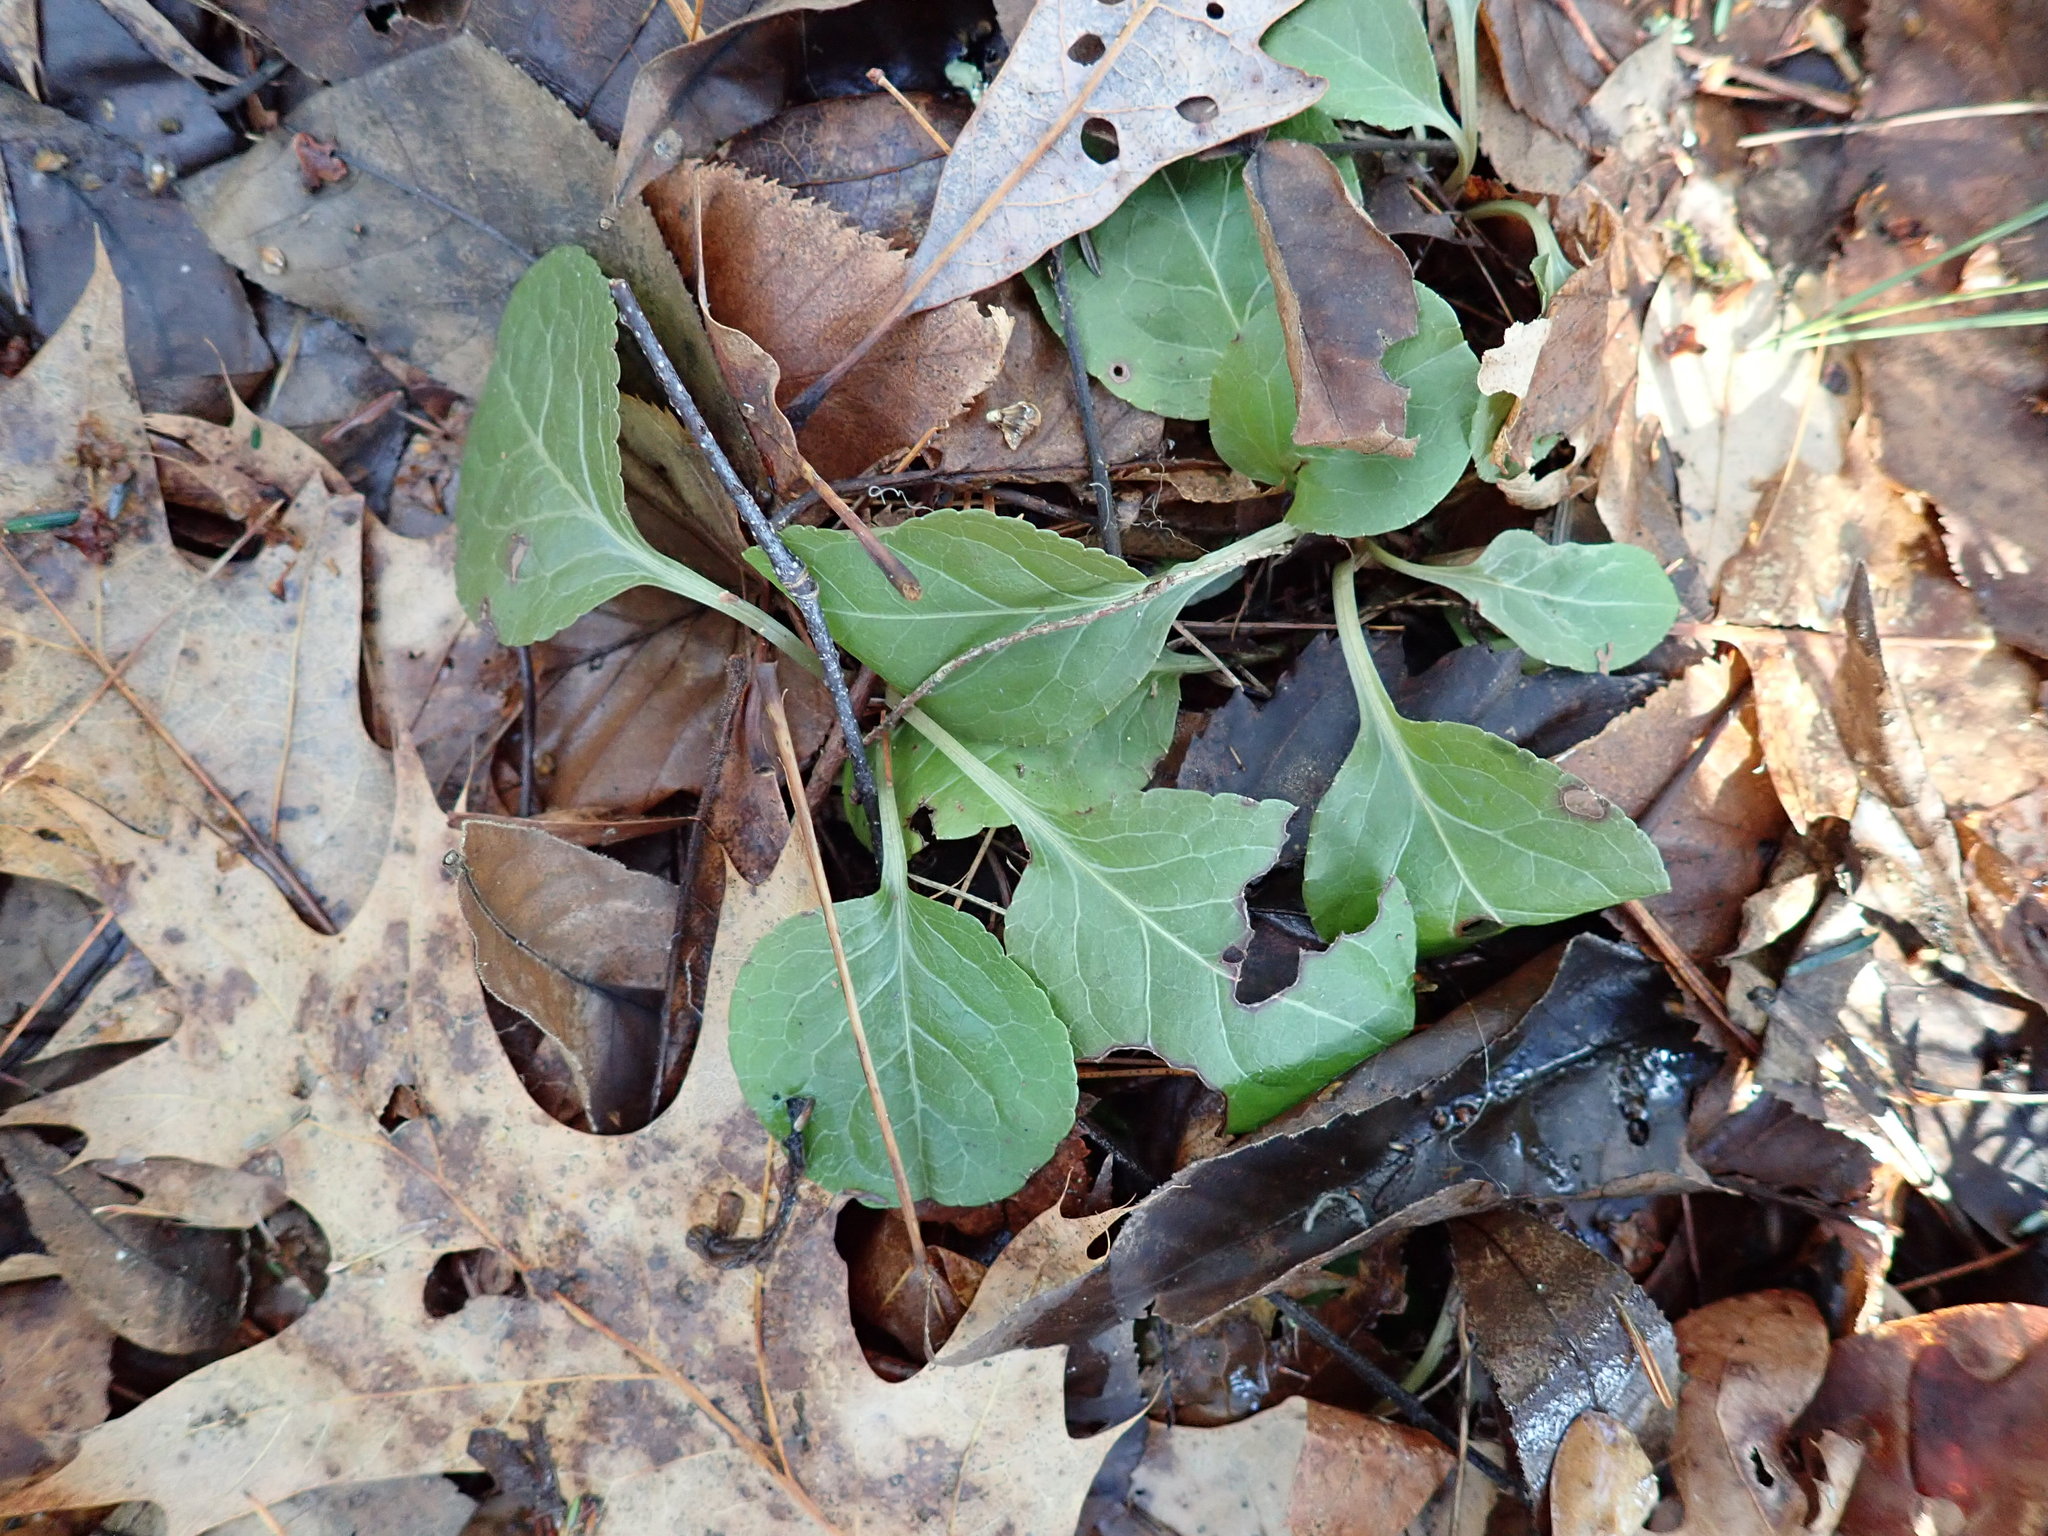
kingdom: Plantae
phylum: Tracheophyta
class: Magnoliopsida
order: Ericales
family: Ericaceae
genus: Pyrola
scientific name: Pyrola elliptica
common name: Shinleaf
